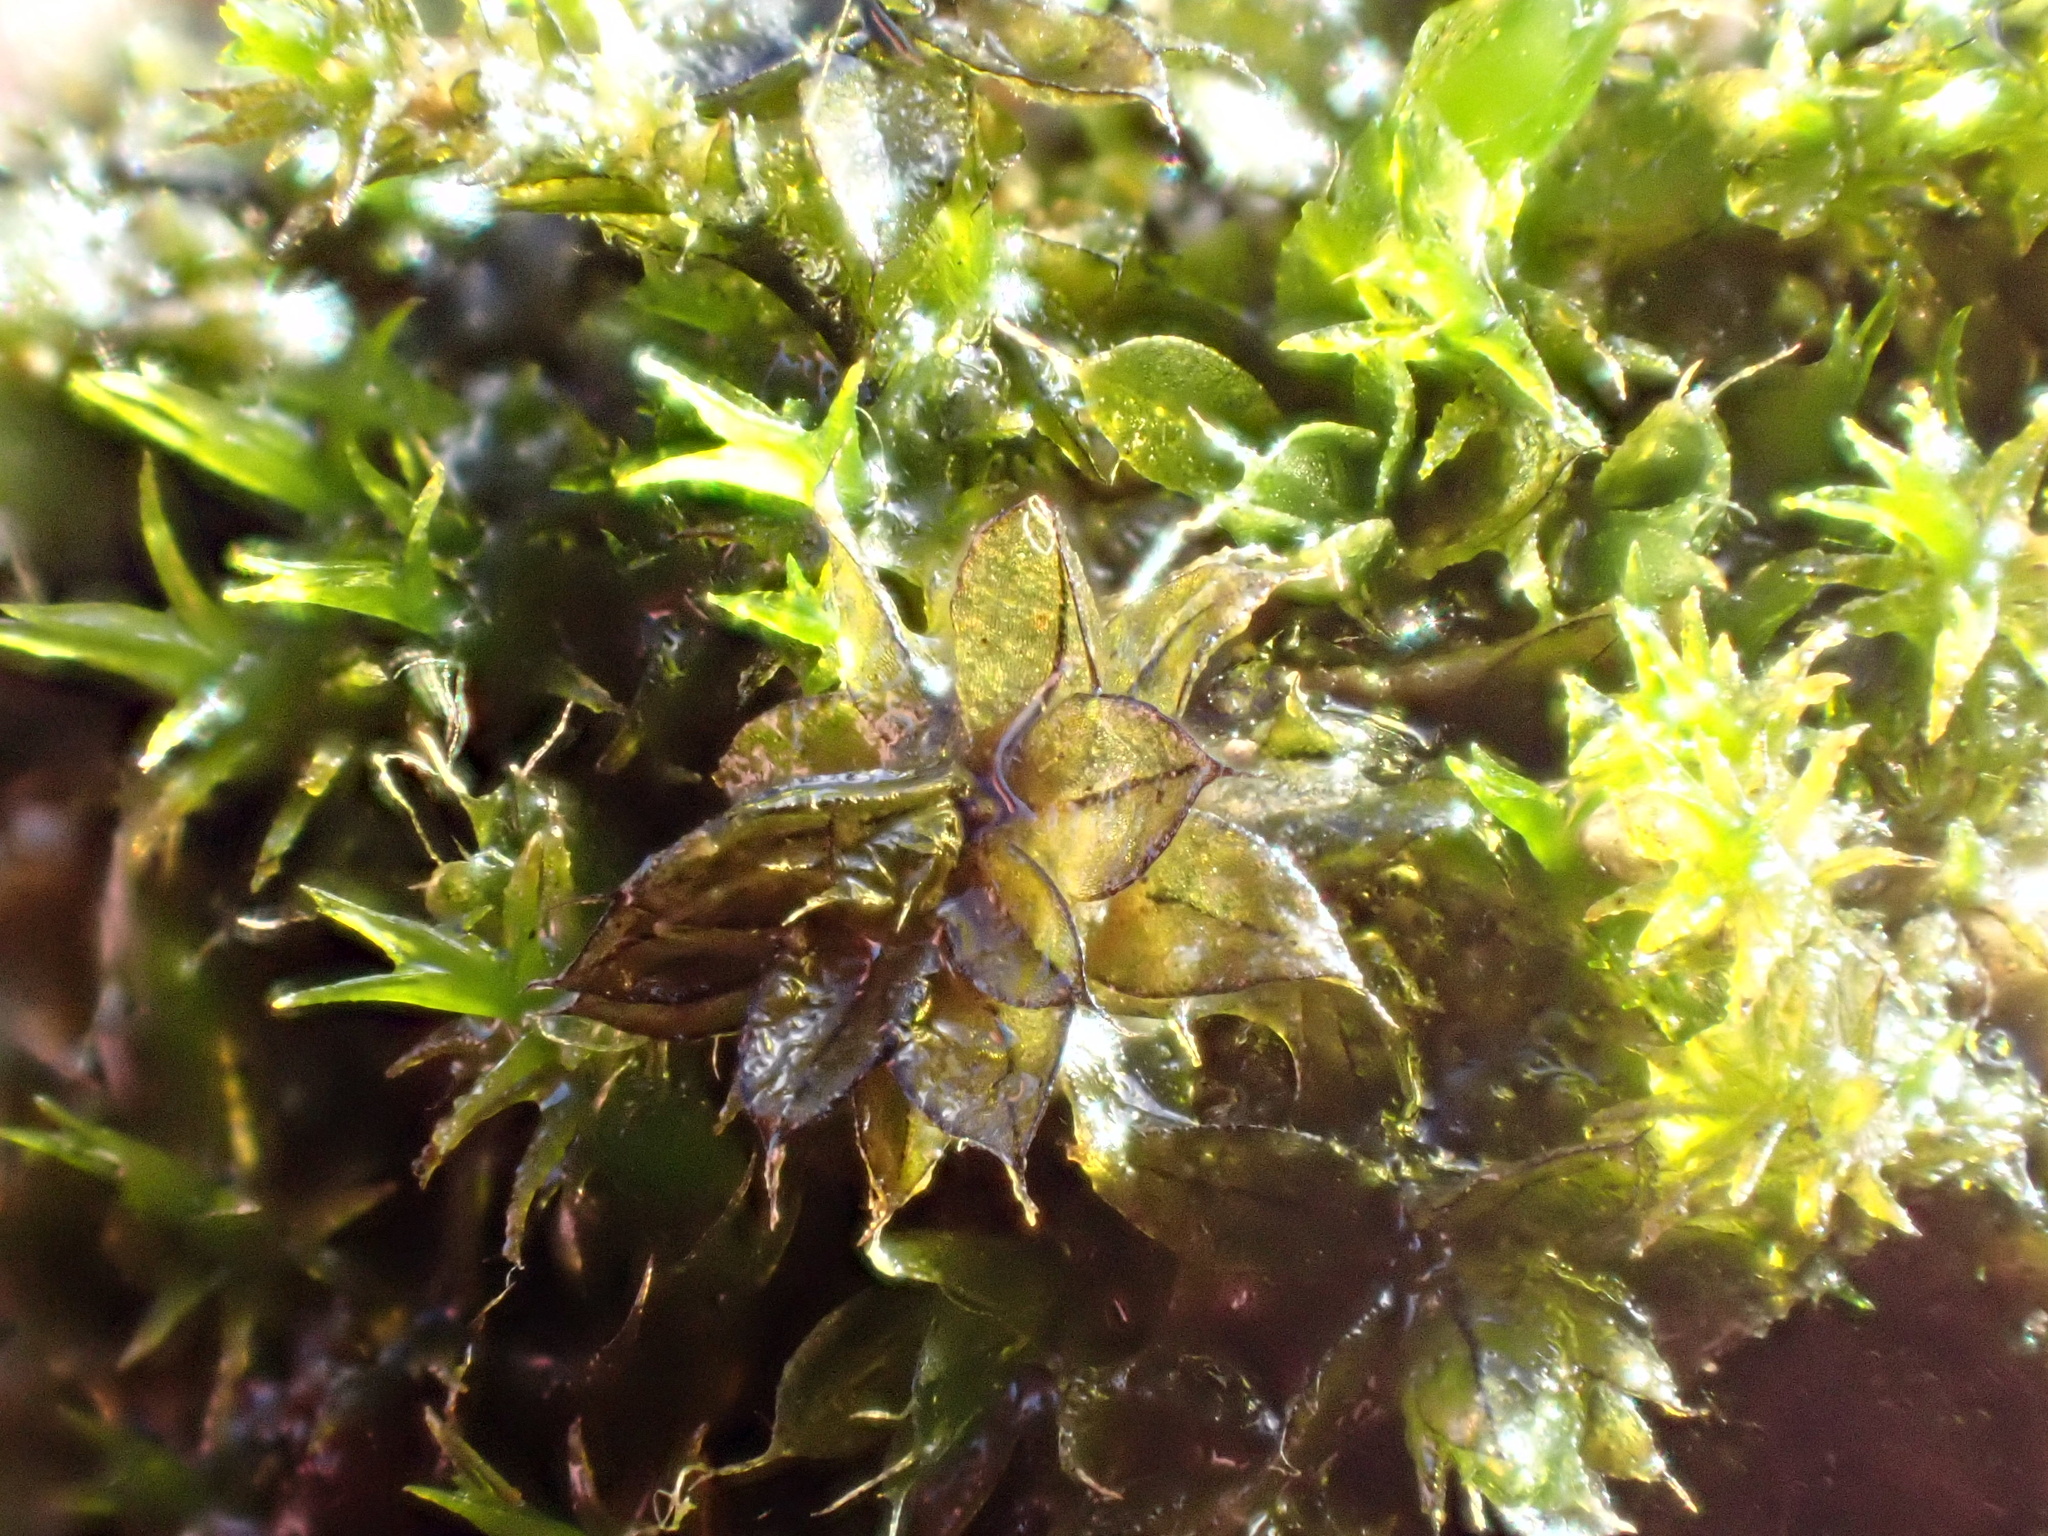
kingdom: Plantae
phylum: Bryophyta
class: Bryopsida
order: Bryales
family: Bryaceae
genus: Rosulabryum
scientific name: Rosulabryum capillare
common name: Capillary thread-moss
